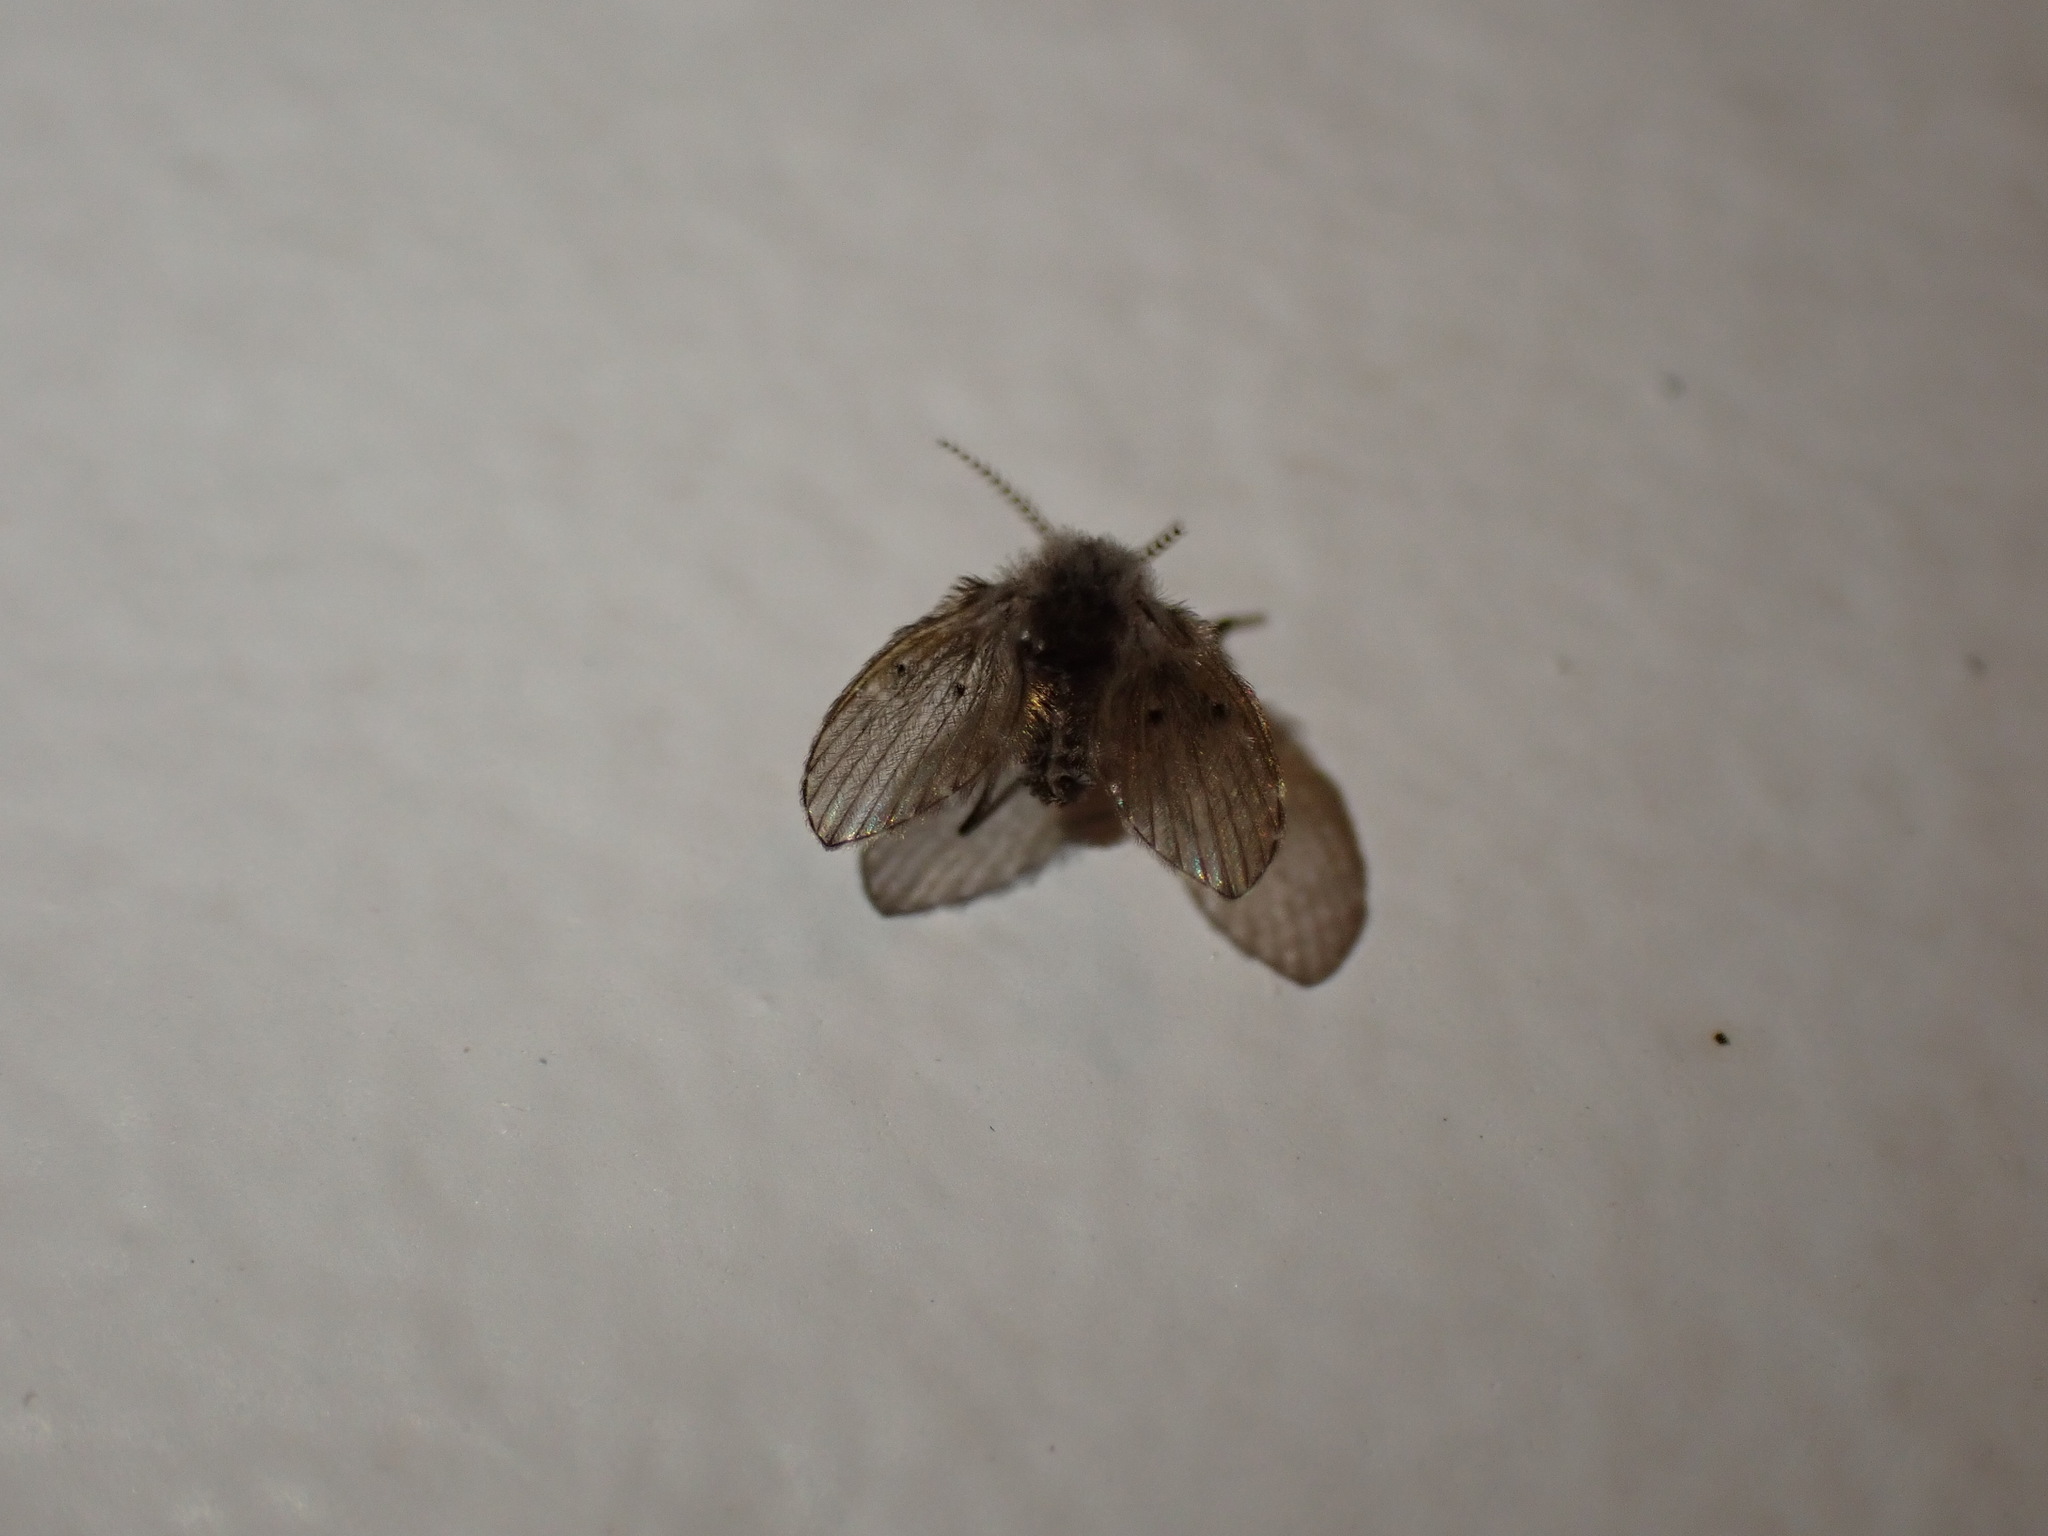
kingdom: Animalia
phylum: Arthropoda
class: Insecta
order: Diptera
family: Psychodidae
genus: Clogmia
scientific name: Clogmia albipunctatus
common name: White-spotted moth fly
